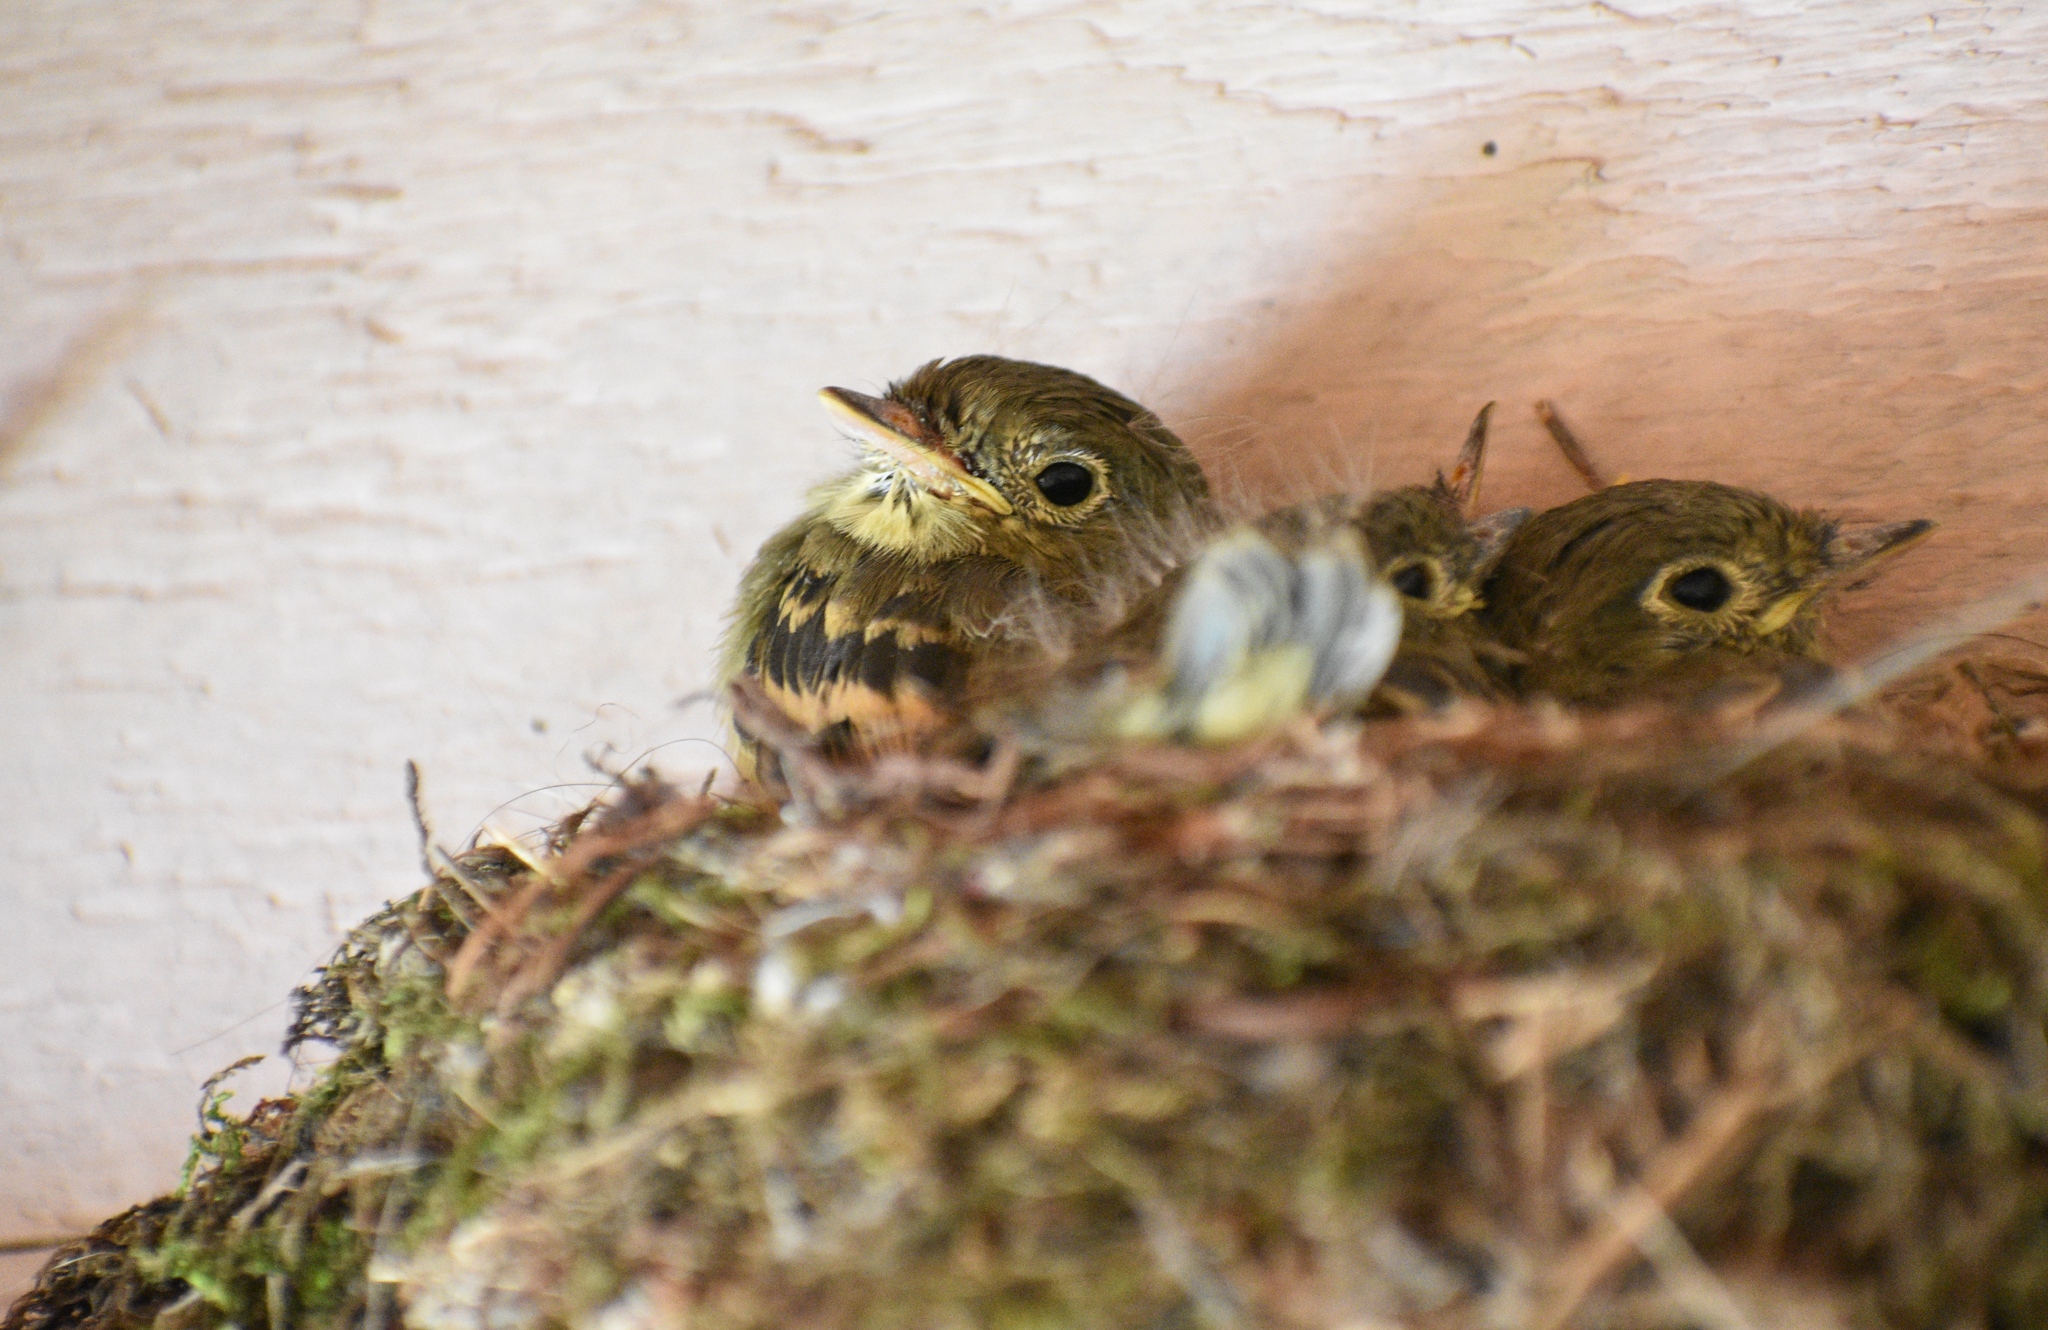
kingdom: Animalia
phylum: Chordata
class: Aves
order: Passeriformes
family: Tyrannidae
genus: Empidonax
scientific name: Empidonax difficilis
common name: Pacific-slope flycatcher
